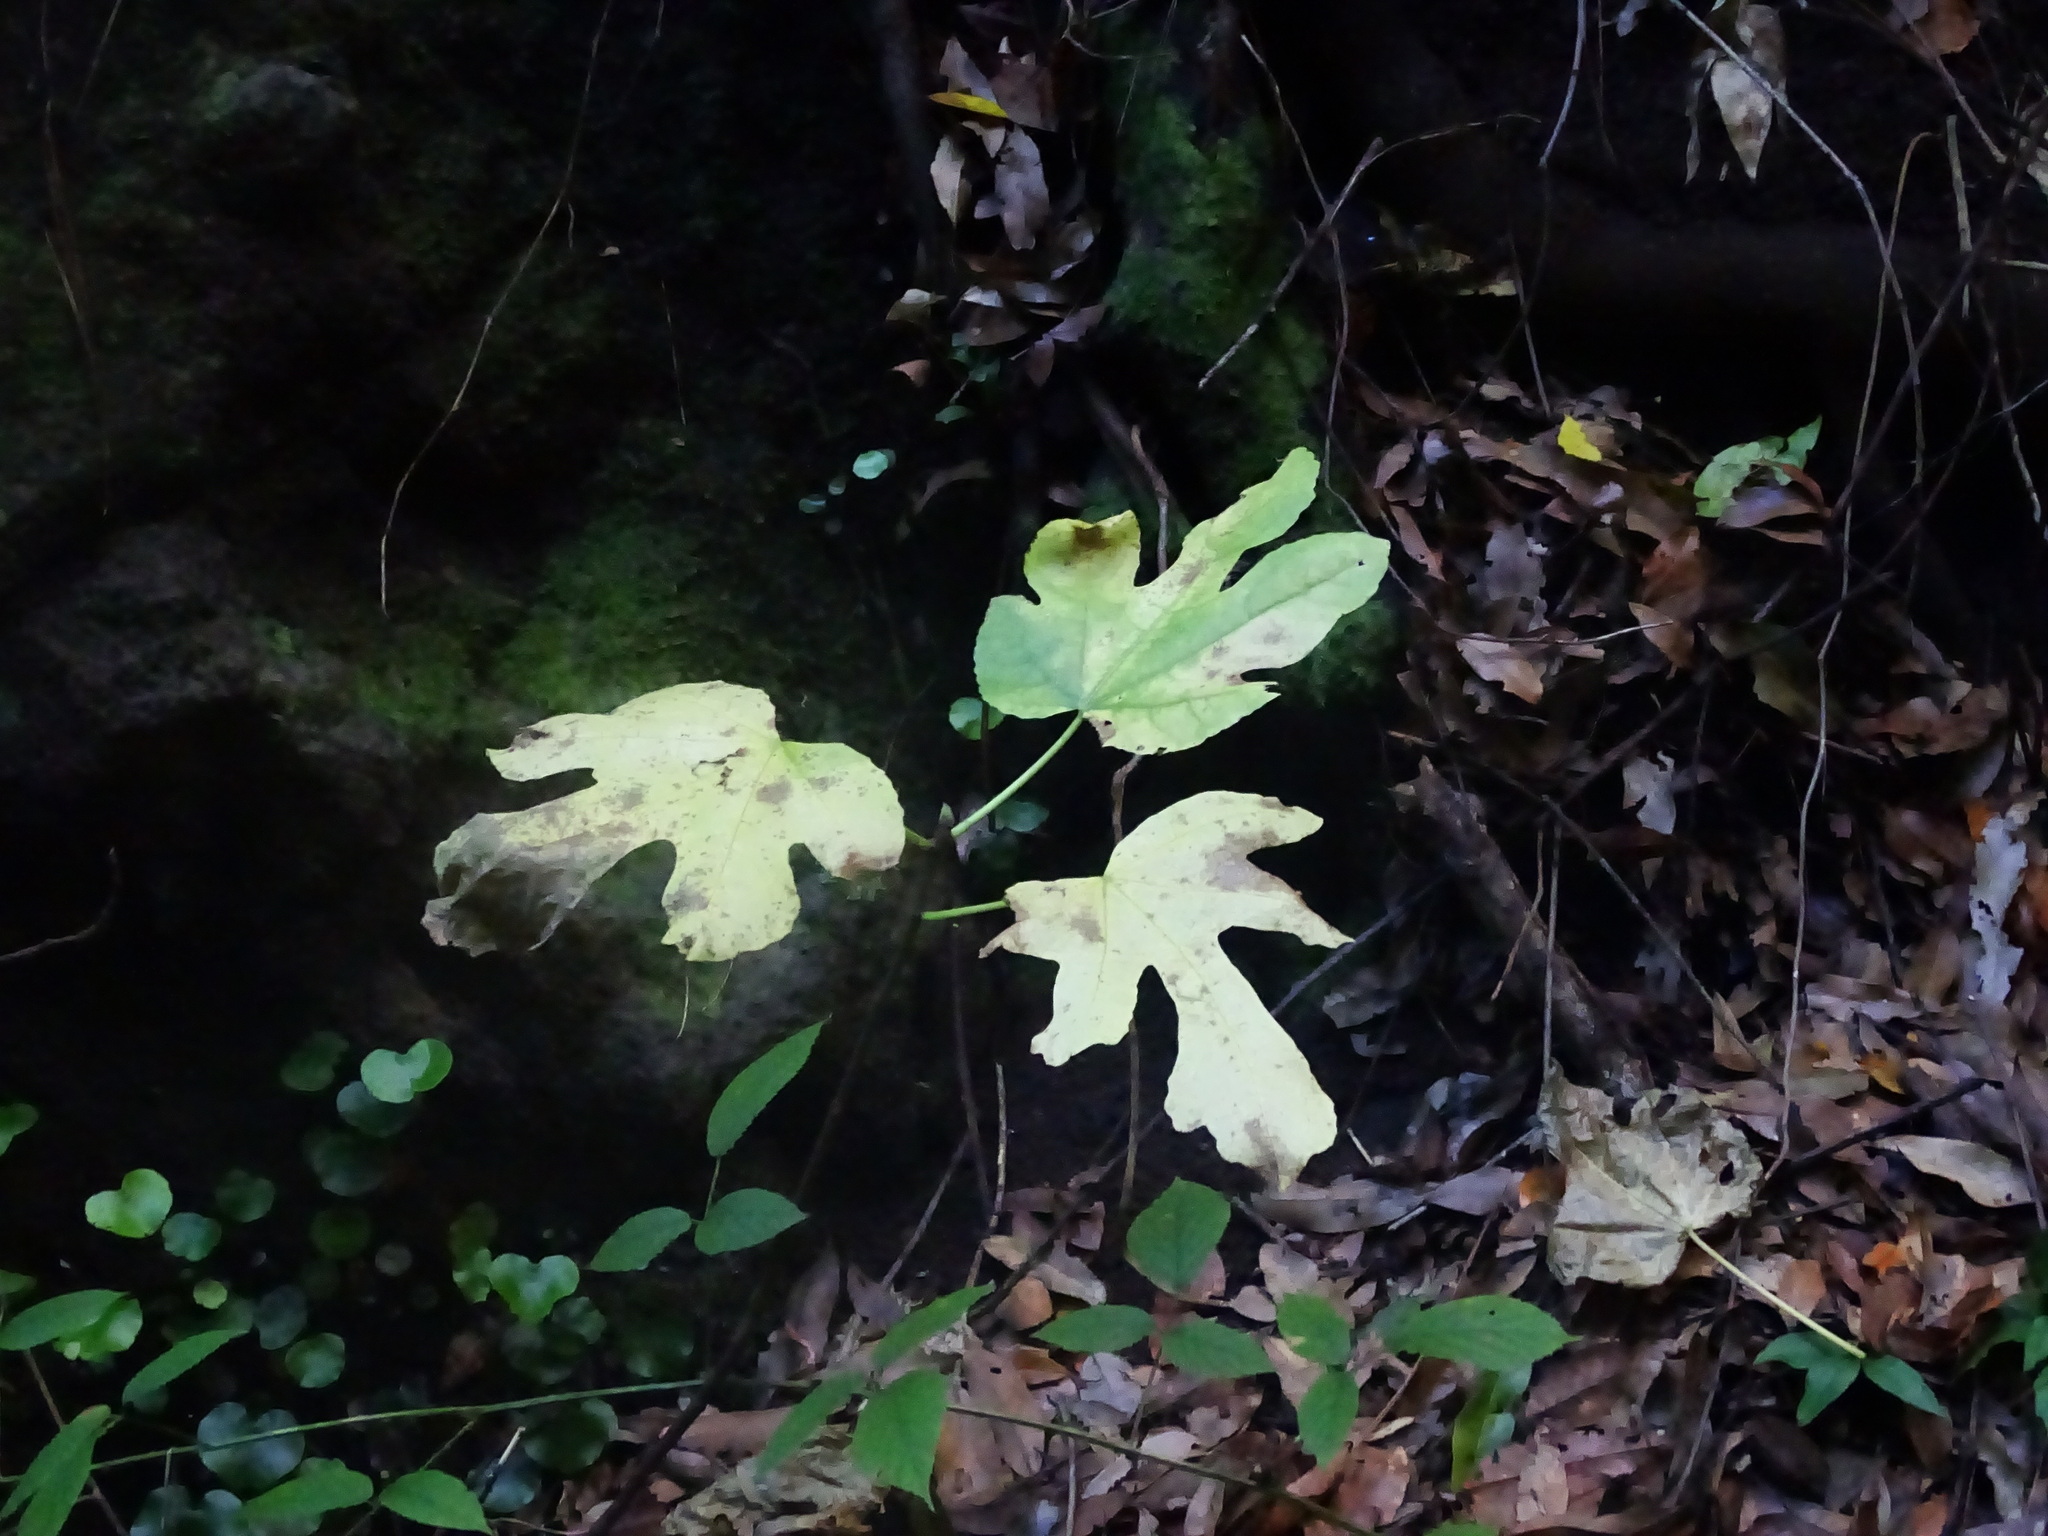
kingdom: Plantae
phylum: Tracheophyta
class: Magnoliopsida
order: Rosales
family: Moraceae
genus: Ficus
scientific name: Ficus carica
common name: Fig
